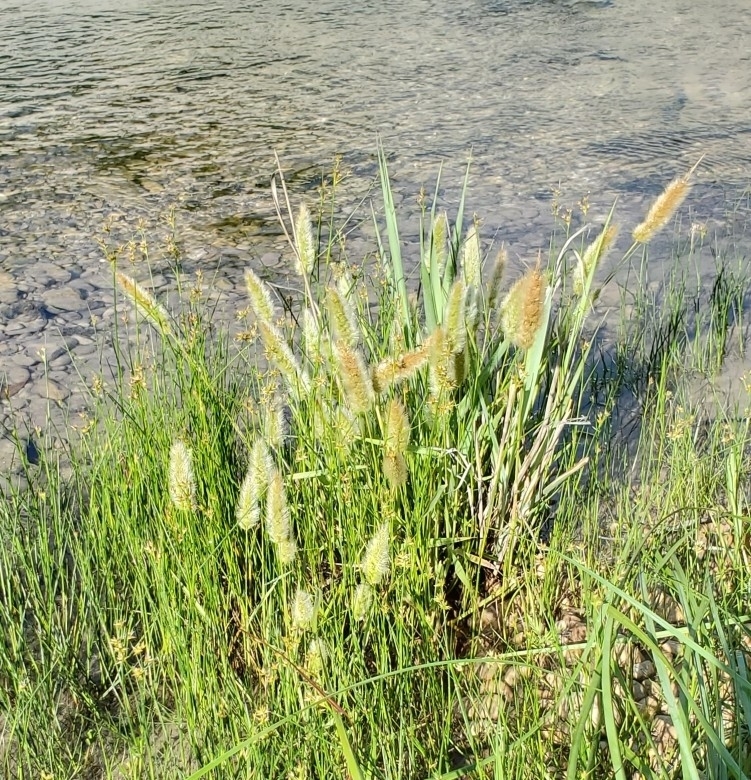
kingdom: Plantae
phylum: Tracheophyta
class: Liliopsida
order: Poales
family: Poaceae
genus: Polypogon
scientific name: Polypogon monspeliensis
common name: Annual rabbitsfoot grass
